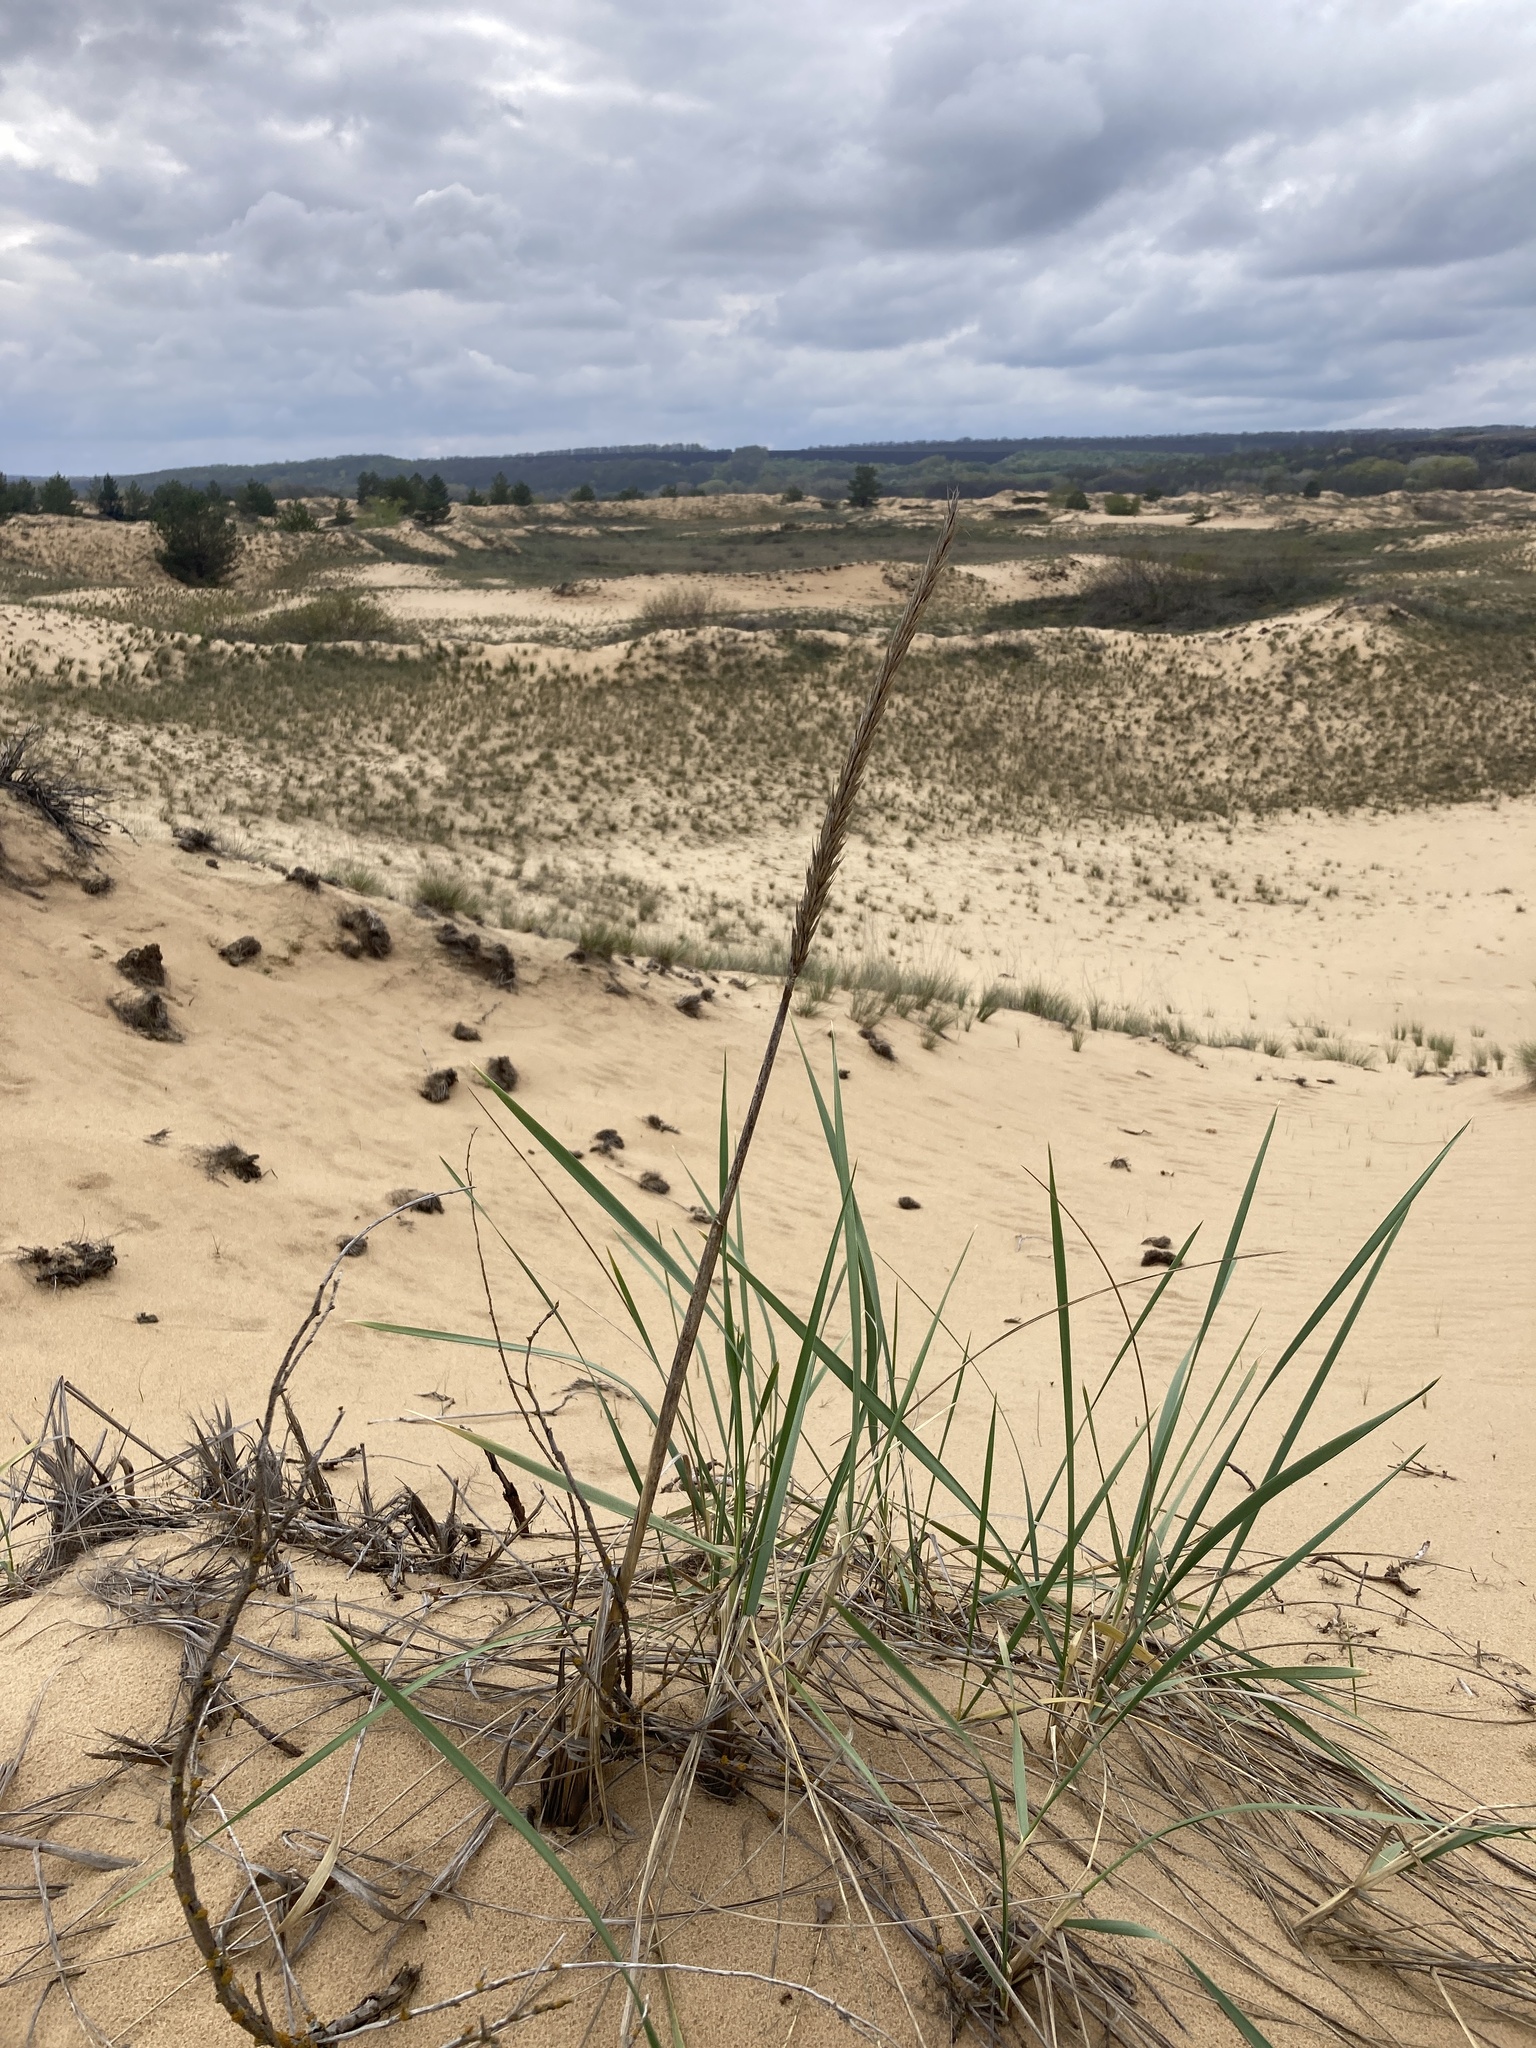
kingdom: Plantae
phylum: Tracheophyta
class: Liliopsida
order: Poales
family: Poaceae
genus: Leymus
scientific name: Leymus racemosus
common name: Mammoth wildrye
